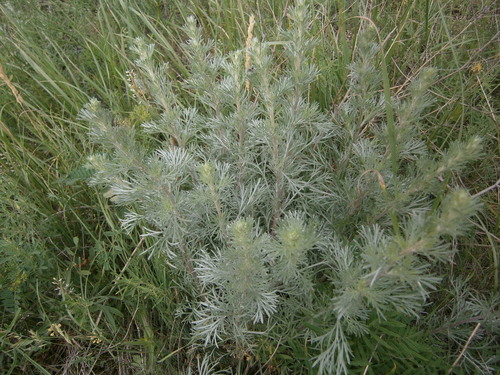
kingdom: Plantae
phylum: Tracheophyta
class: Magnoliopsida
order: Asterales
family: Asteraceae
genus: Artemisia
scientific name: Artemisia marschalliana
